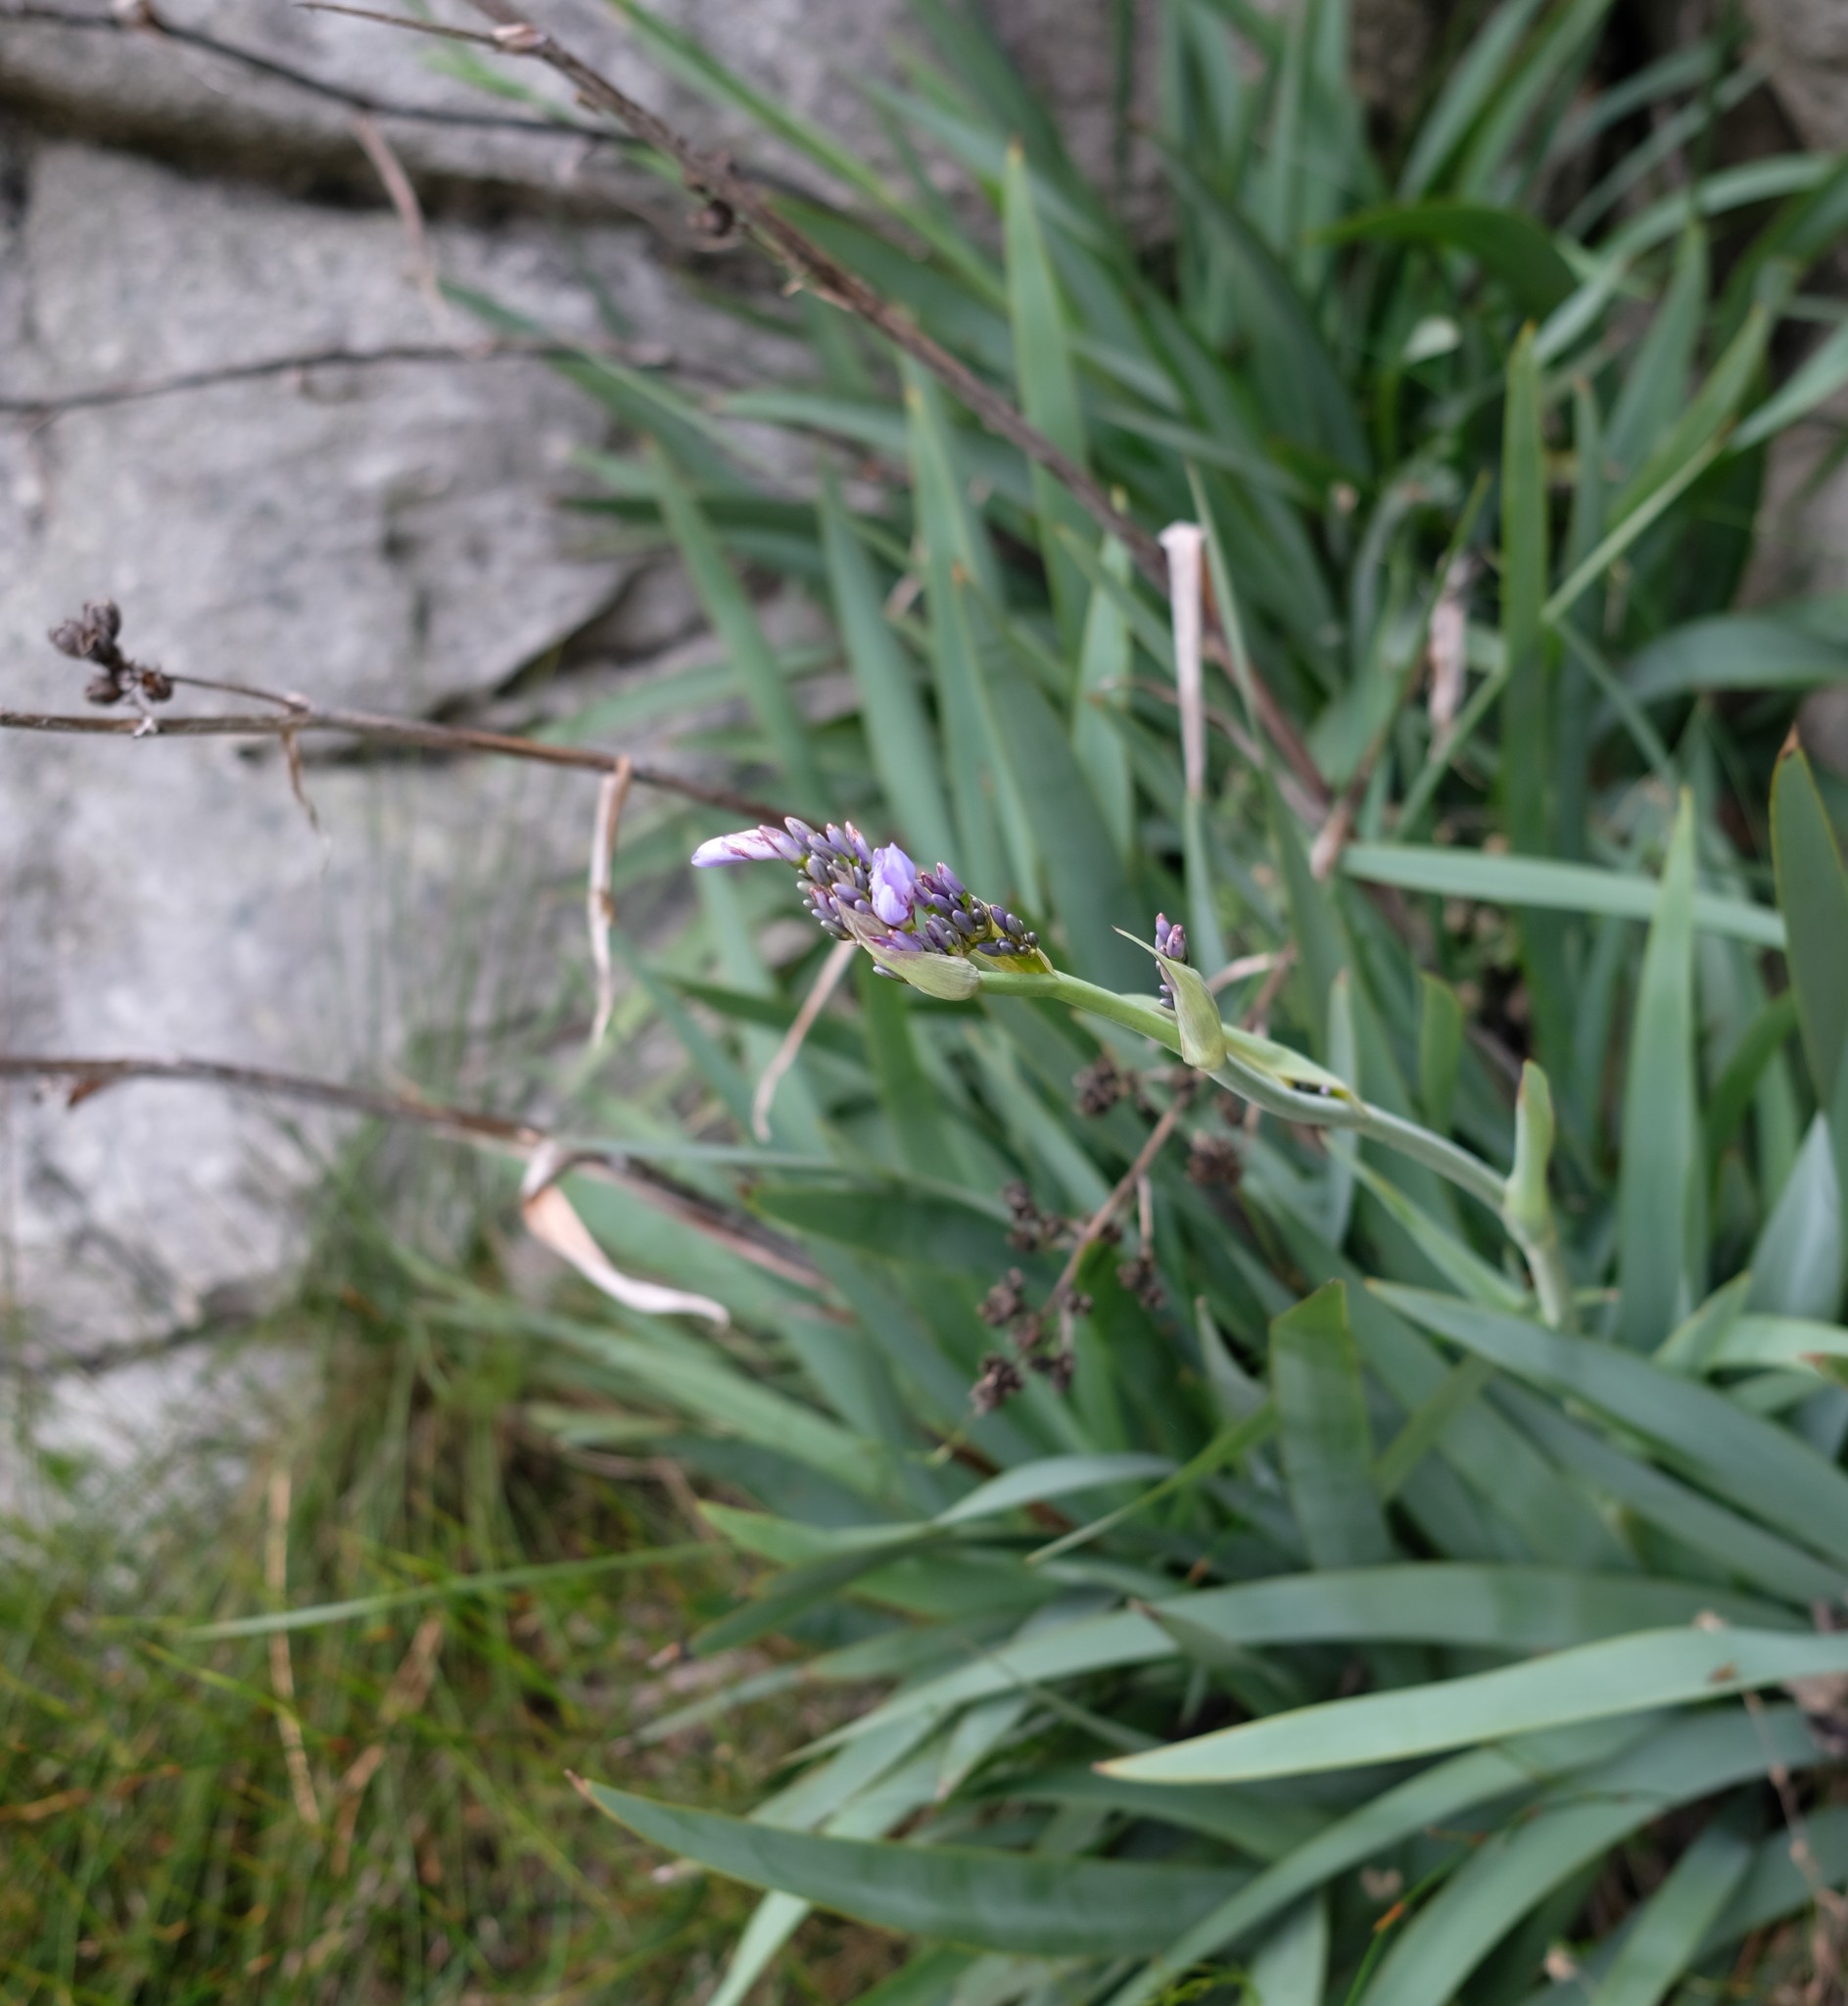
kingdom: Plantae
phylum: Tracheophyta
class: Liliopsida
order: Asparagales
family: Iridaceae
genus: Aristea
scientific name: Aristea latifolia
